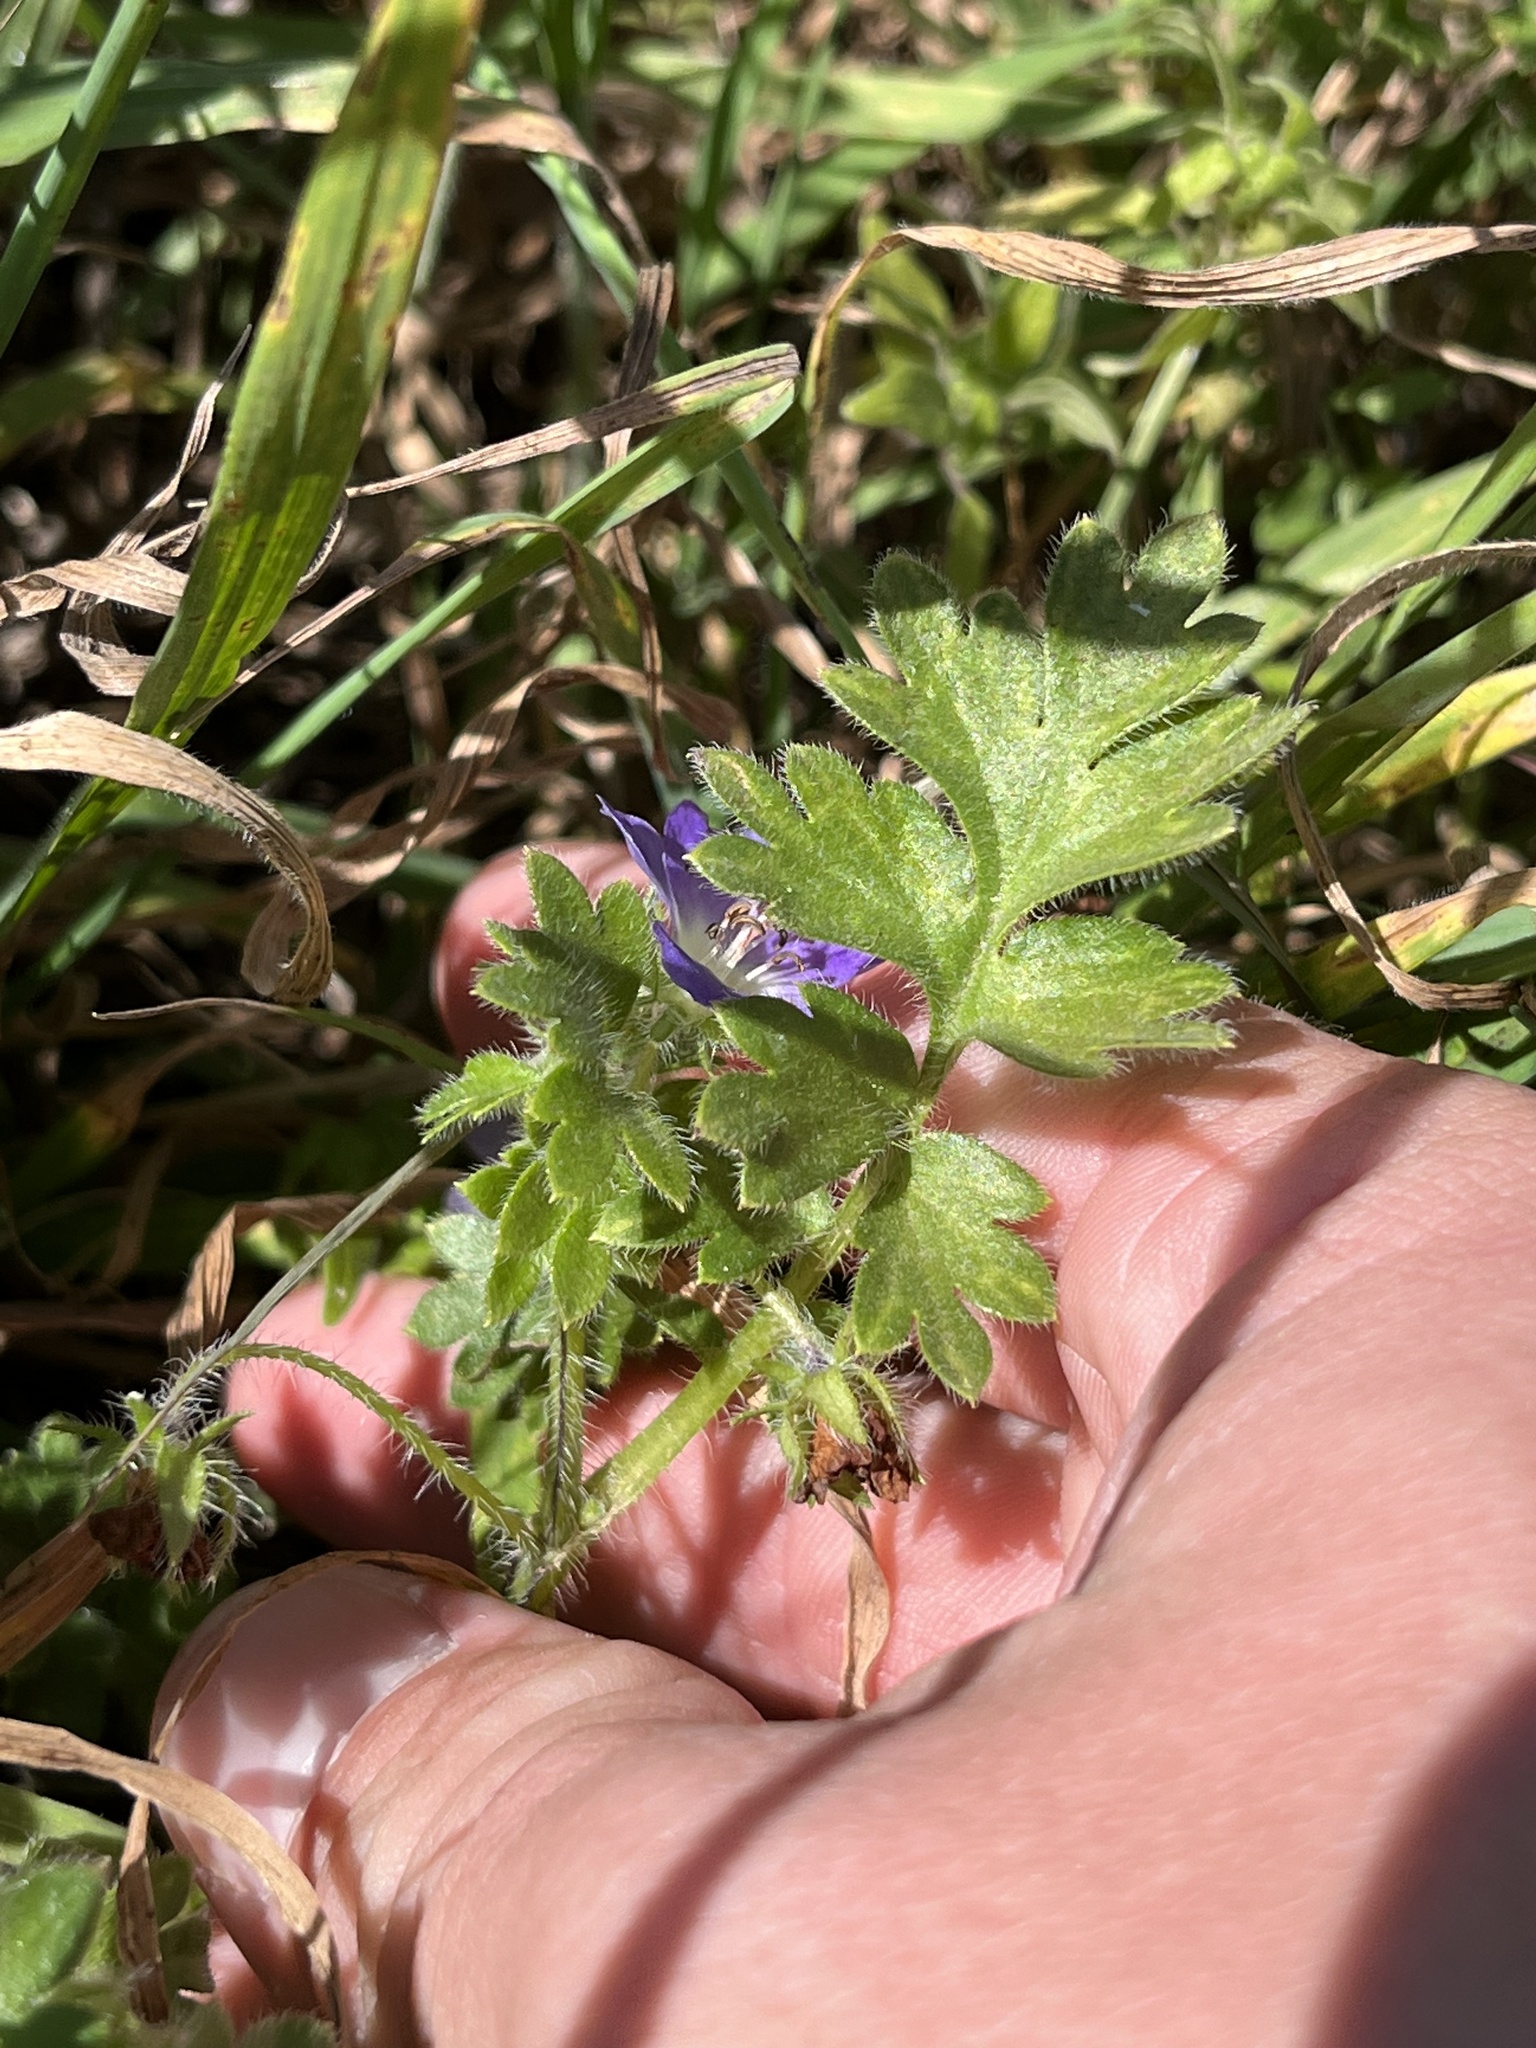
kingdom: Plantae
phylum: Tracheophyta
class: Magnoliopsida
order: Boraginales
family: Hydrophyllaceae
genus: Nemophila
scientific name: Nemophila phacelioides
